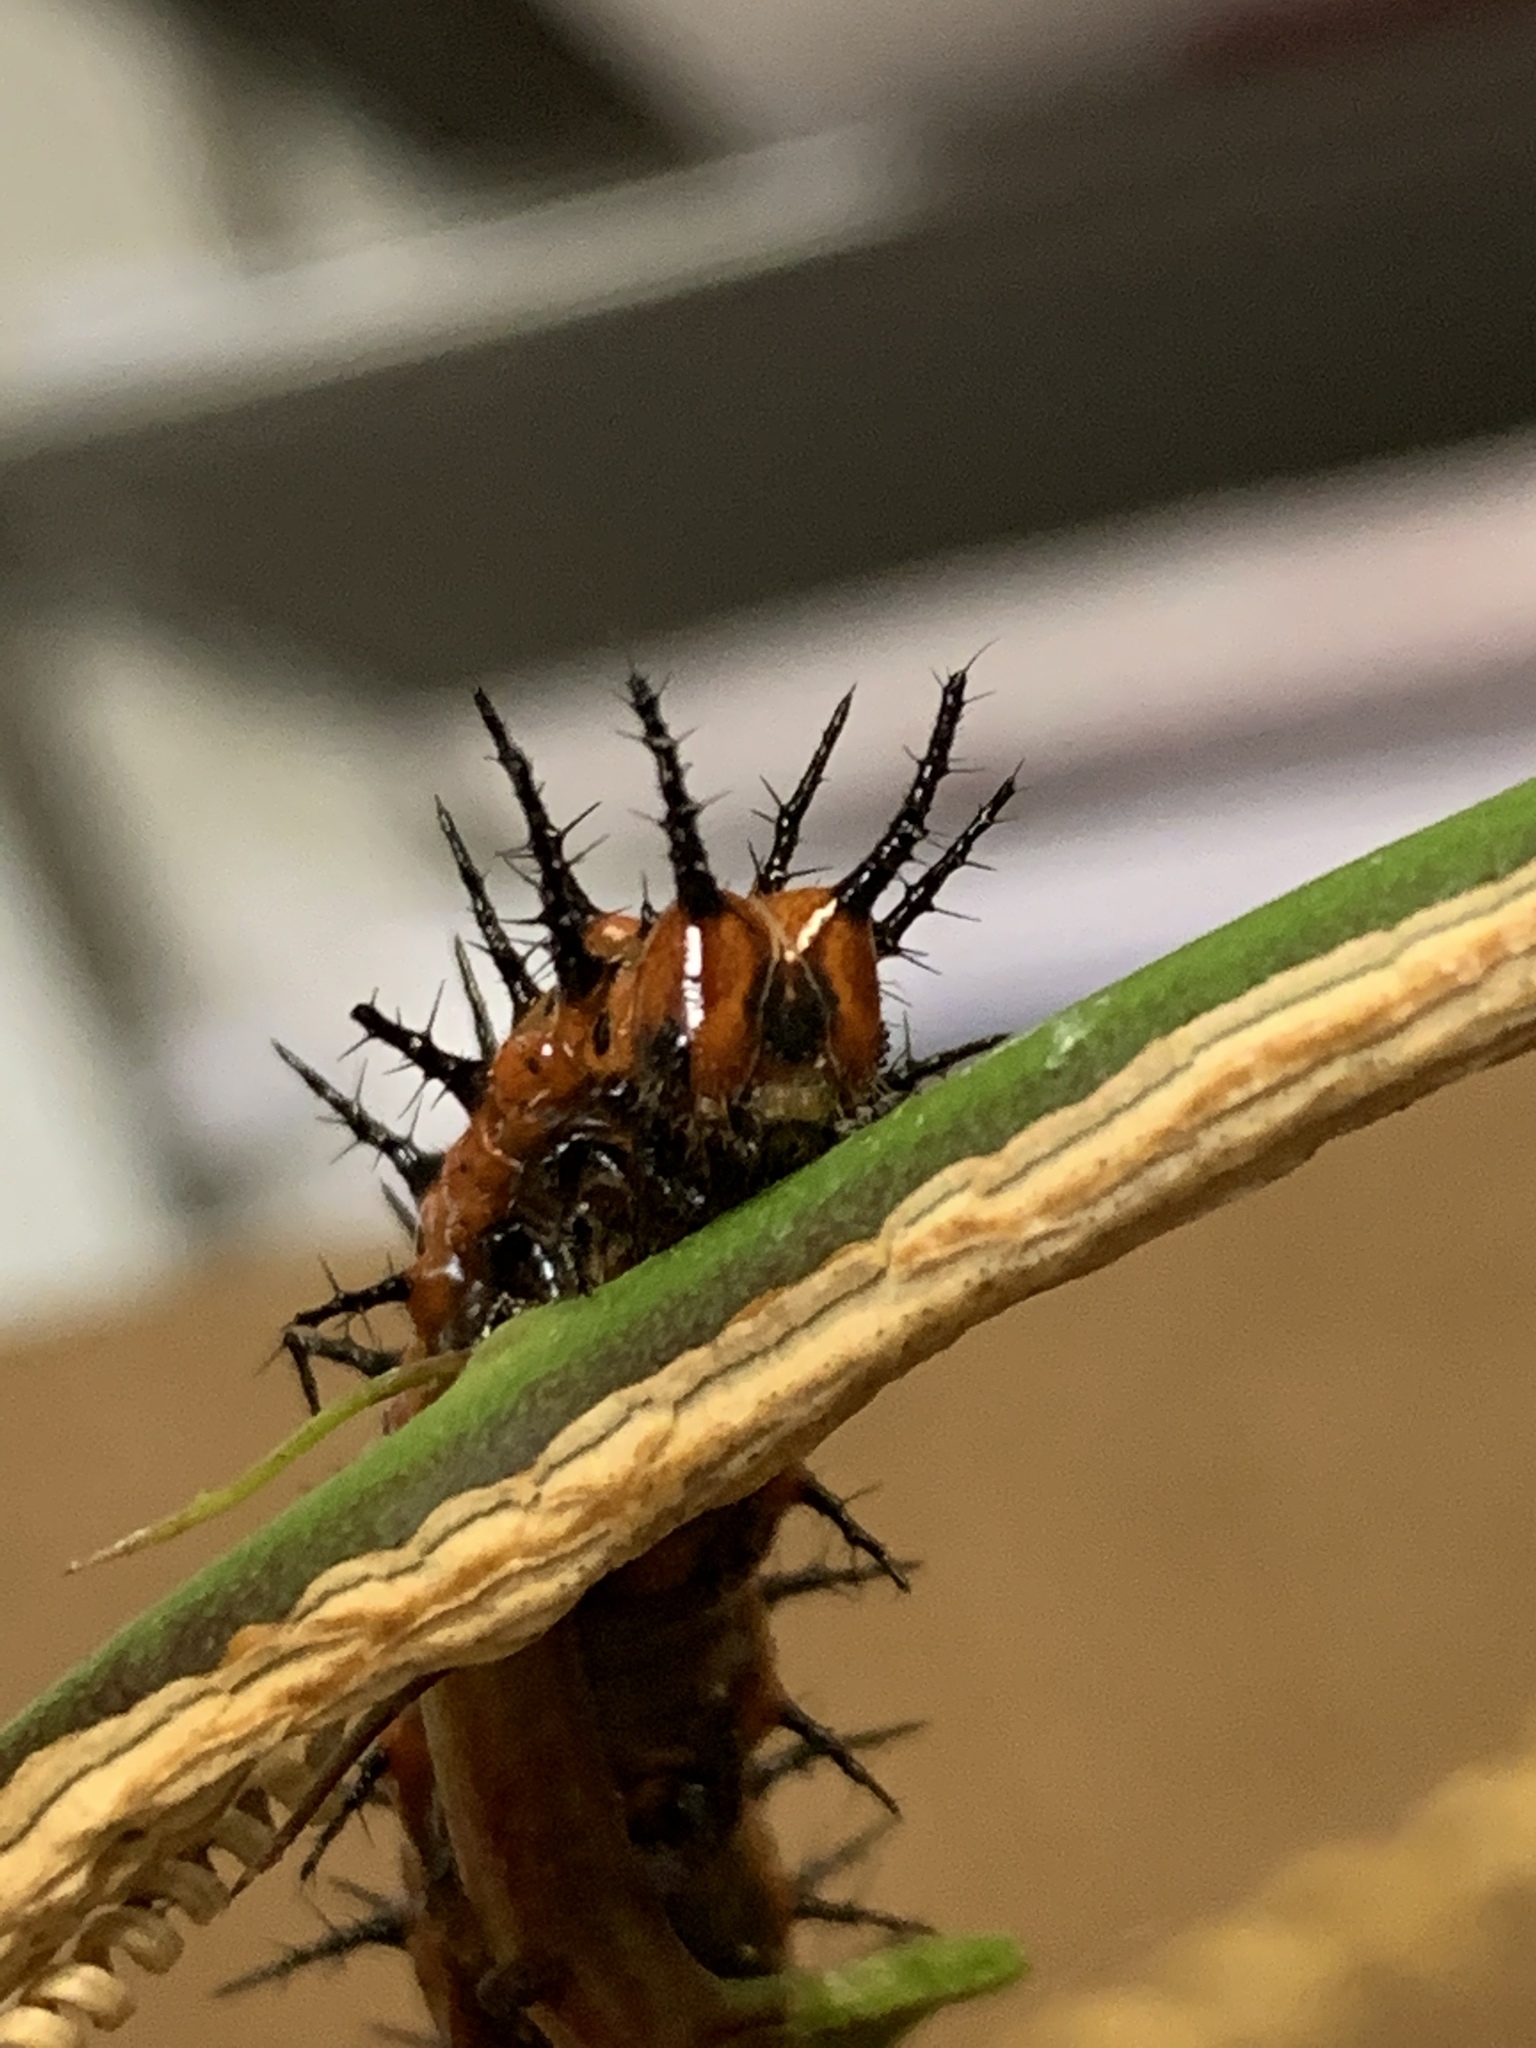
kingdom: Animalia
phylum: Arthropoda
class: Insecta
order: Lepidoptera
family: Nymphalidae
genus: Dione
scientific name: Dione vanillae
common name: Gulf fritillary
